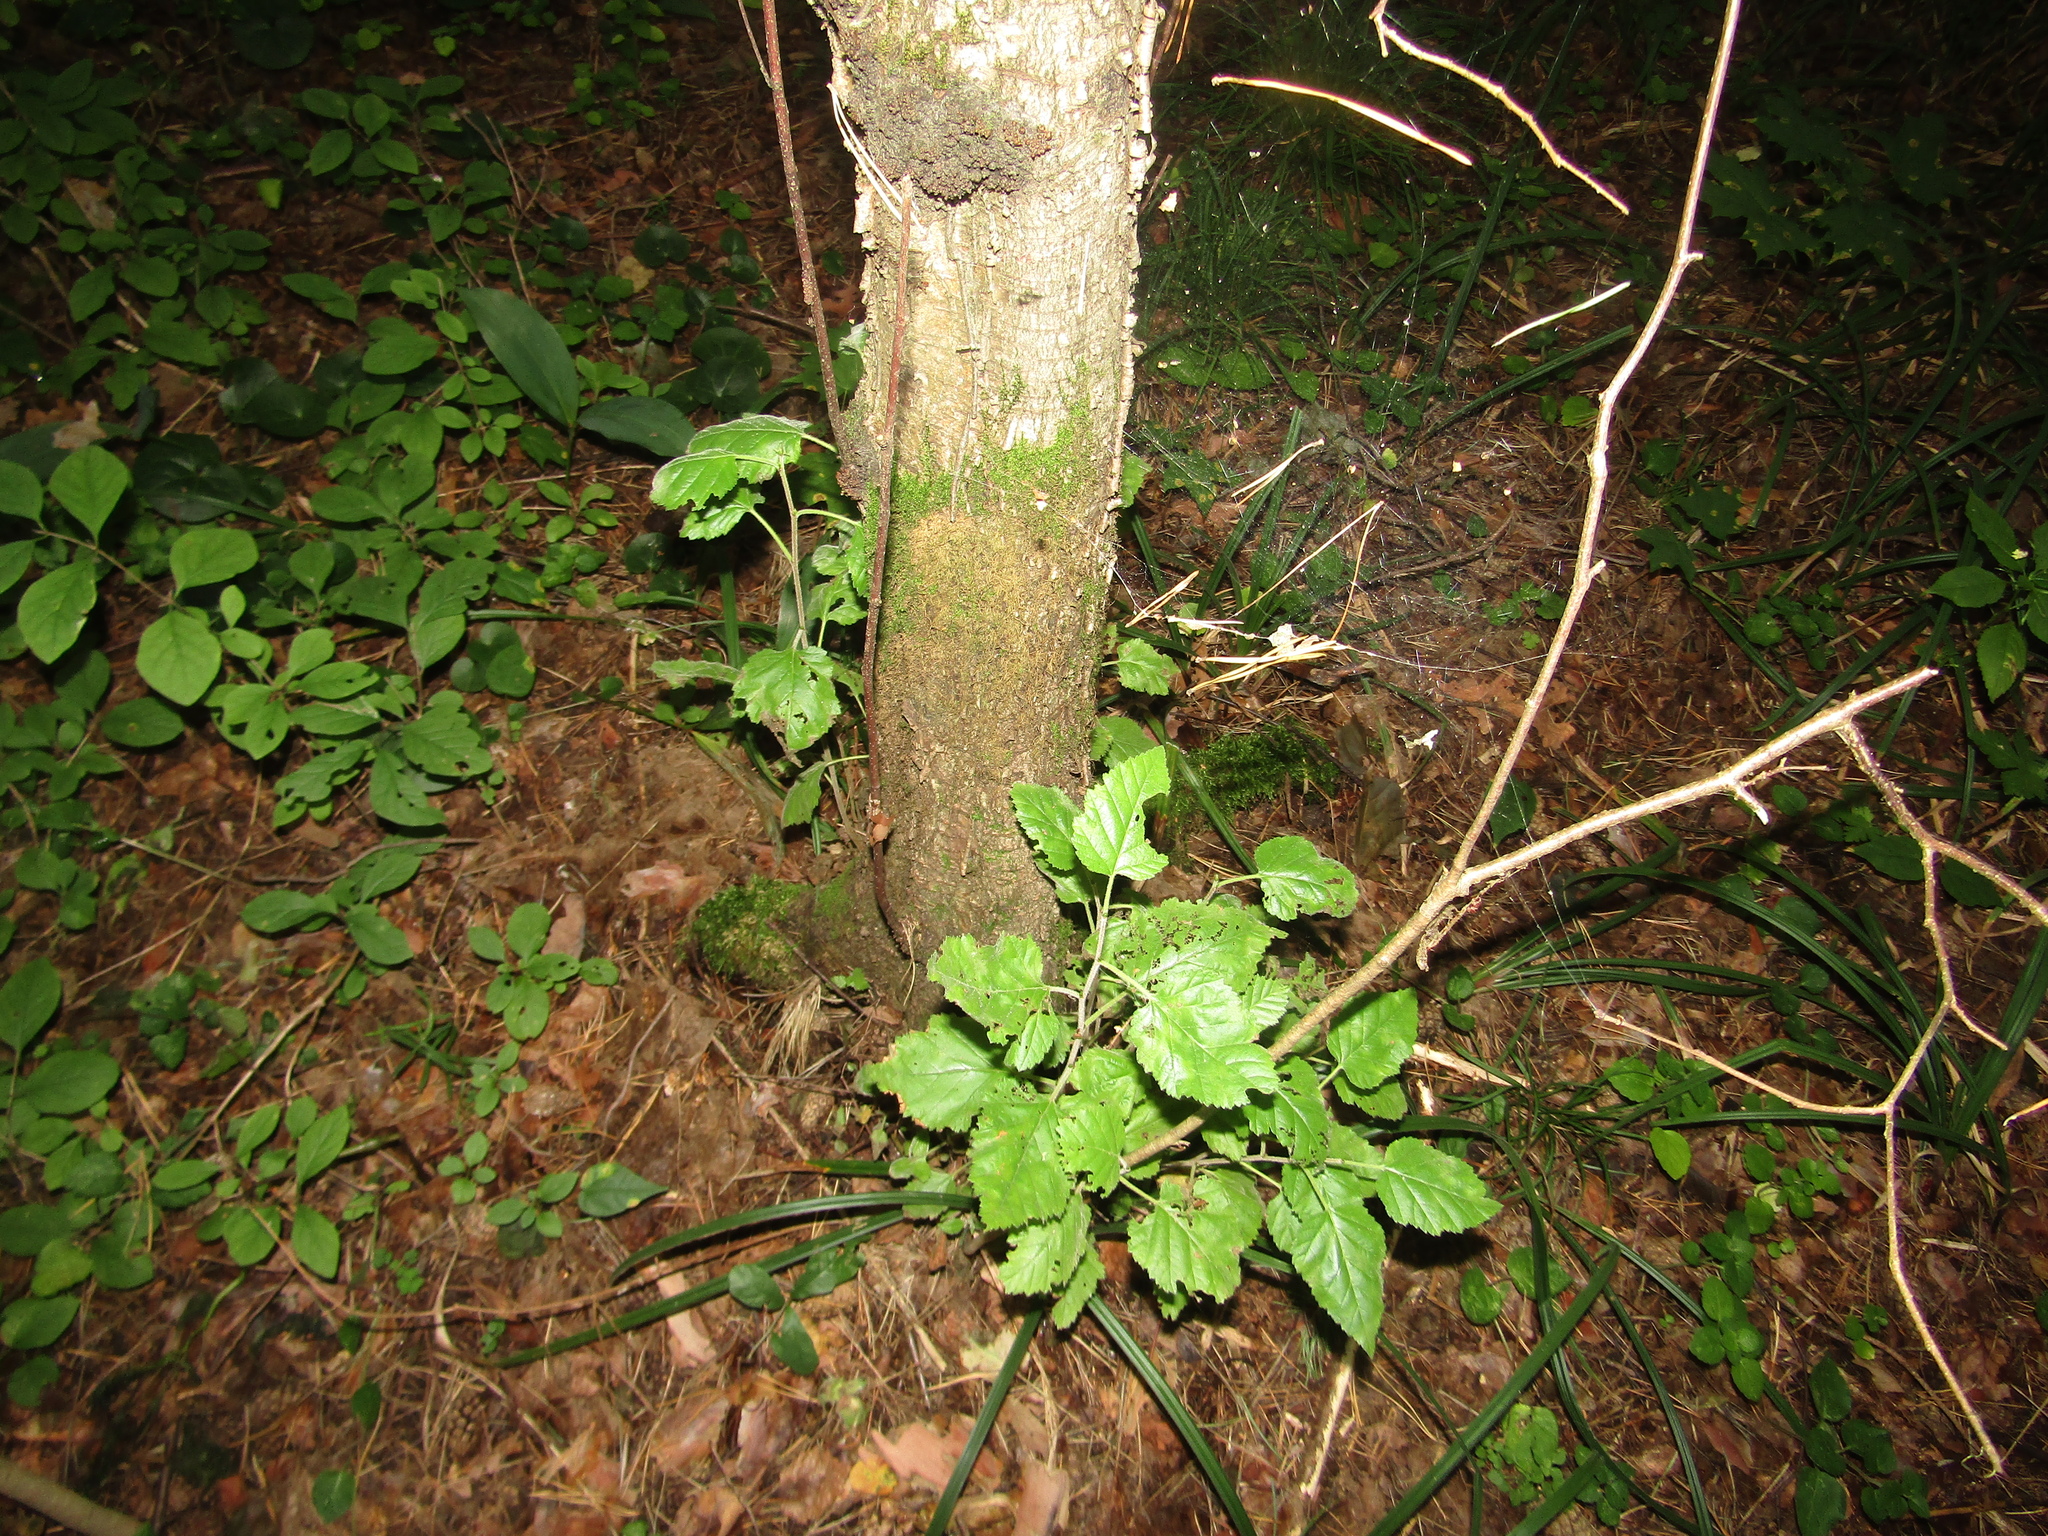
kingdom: Plantae
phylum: Tracheophyta
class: Magnoliopsida
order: Fagales
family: Betulaceae
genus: Betula
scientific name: Betula pubescens
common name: Downy birch
